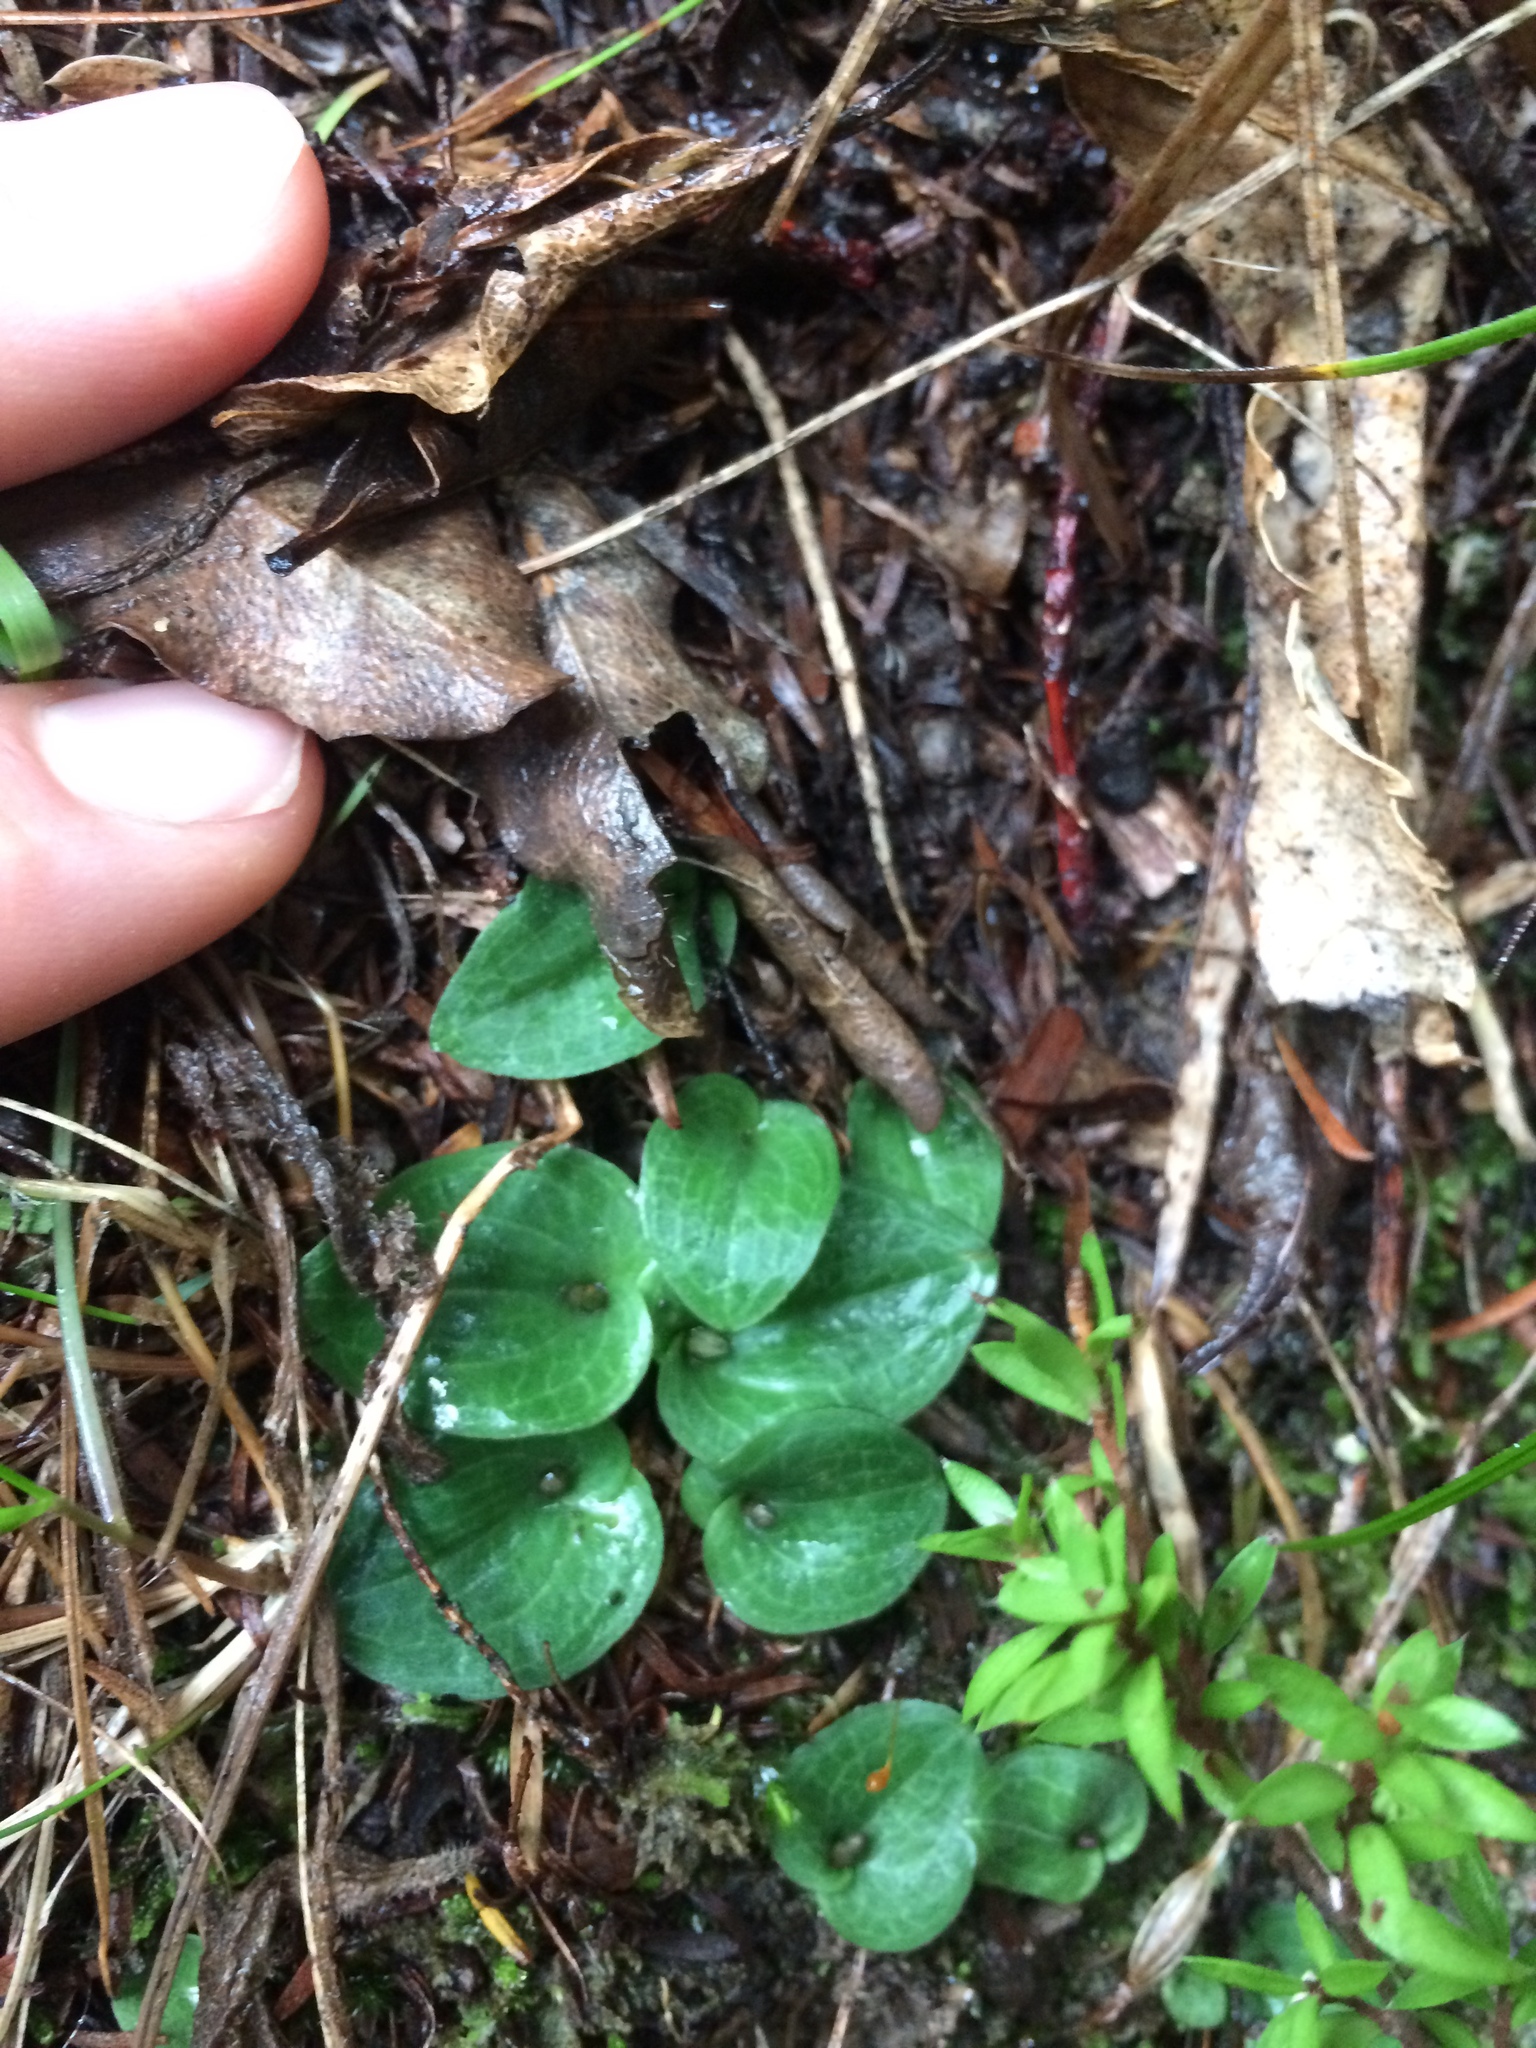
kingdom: Plantae
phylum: Tracheophyta
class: Liliopsida
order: Asparagales
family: Orchidaceae
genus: Cyrtostylis
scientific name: Cyrtostylis rotundifolia
